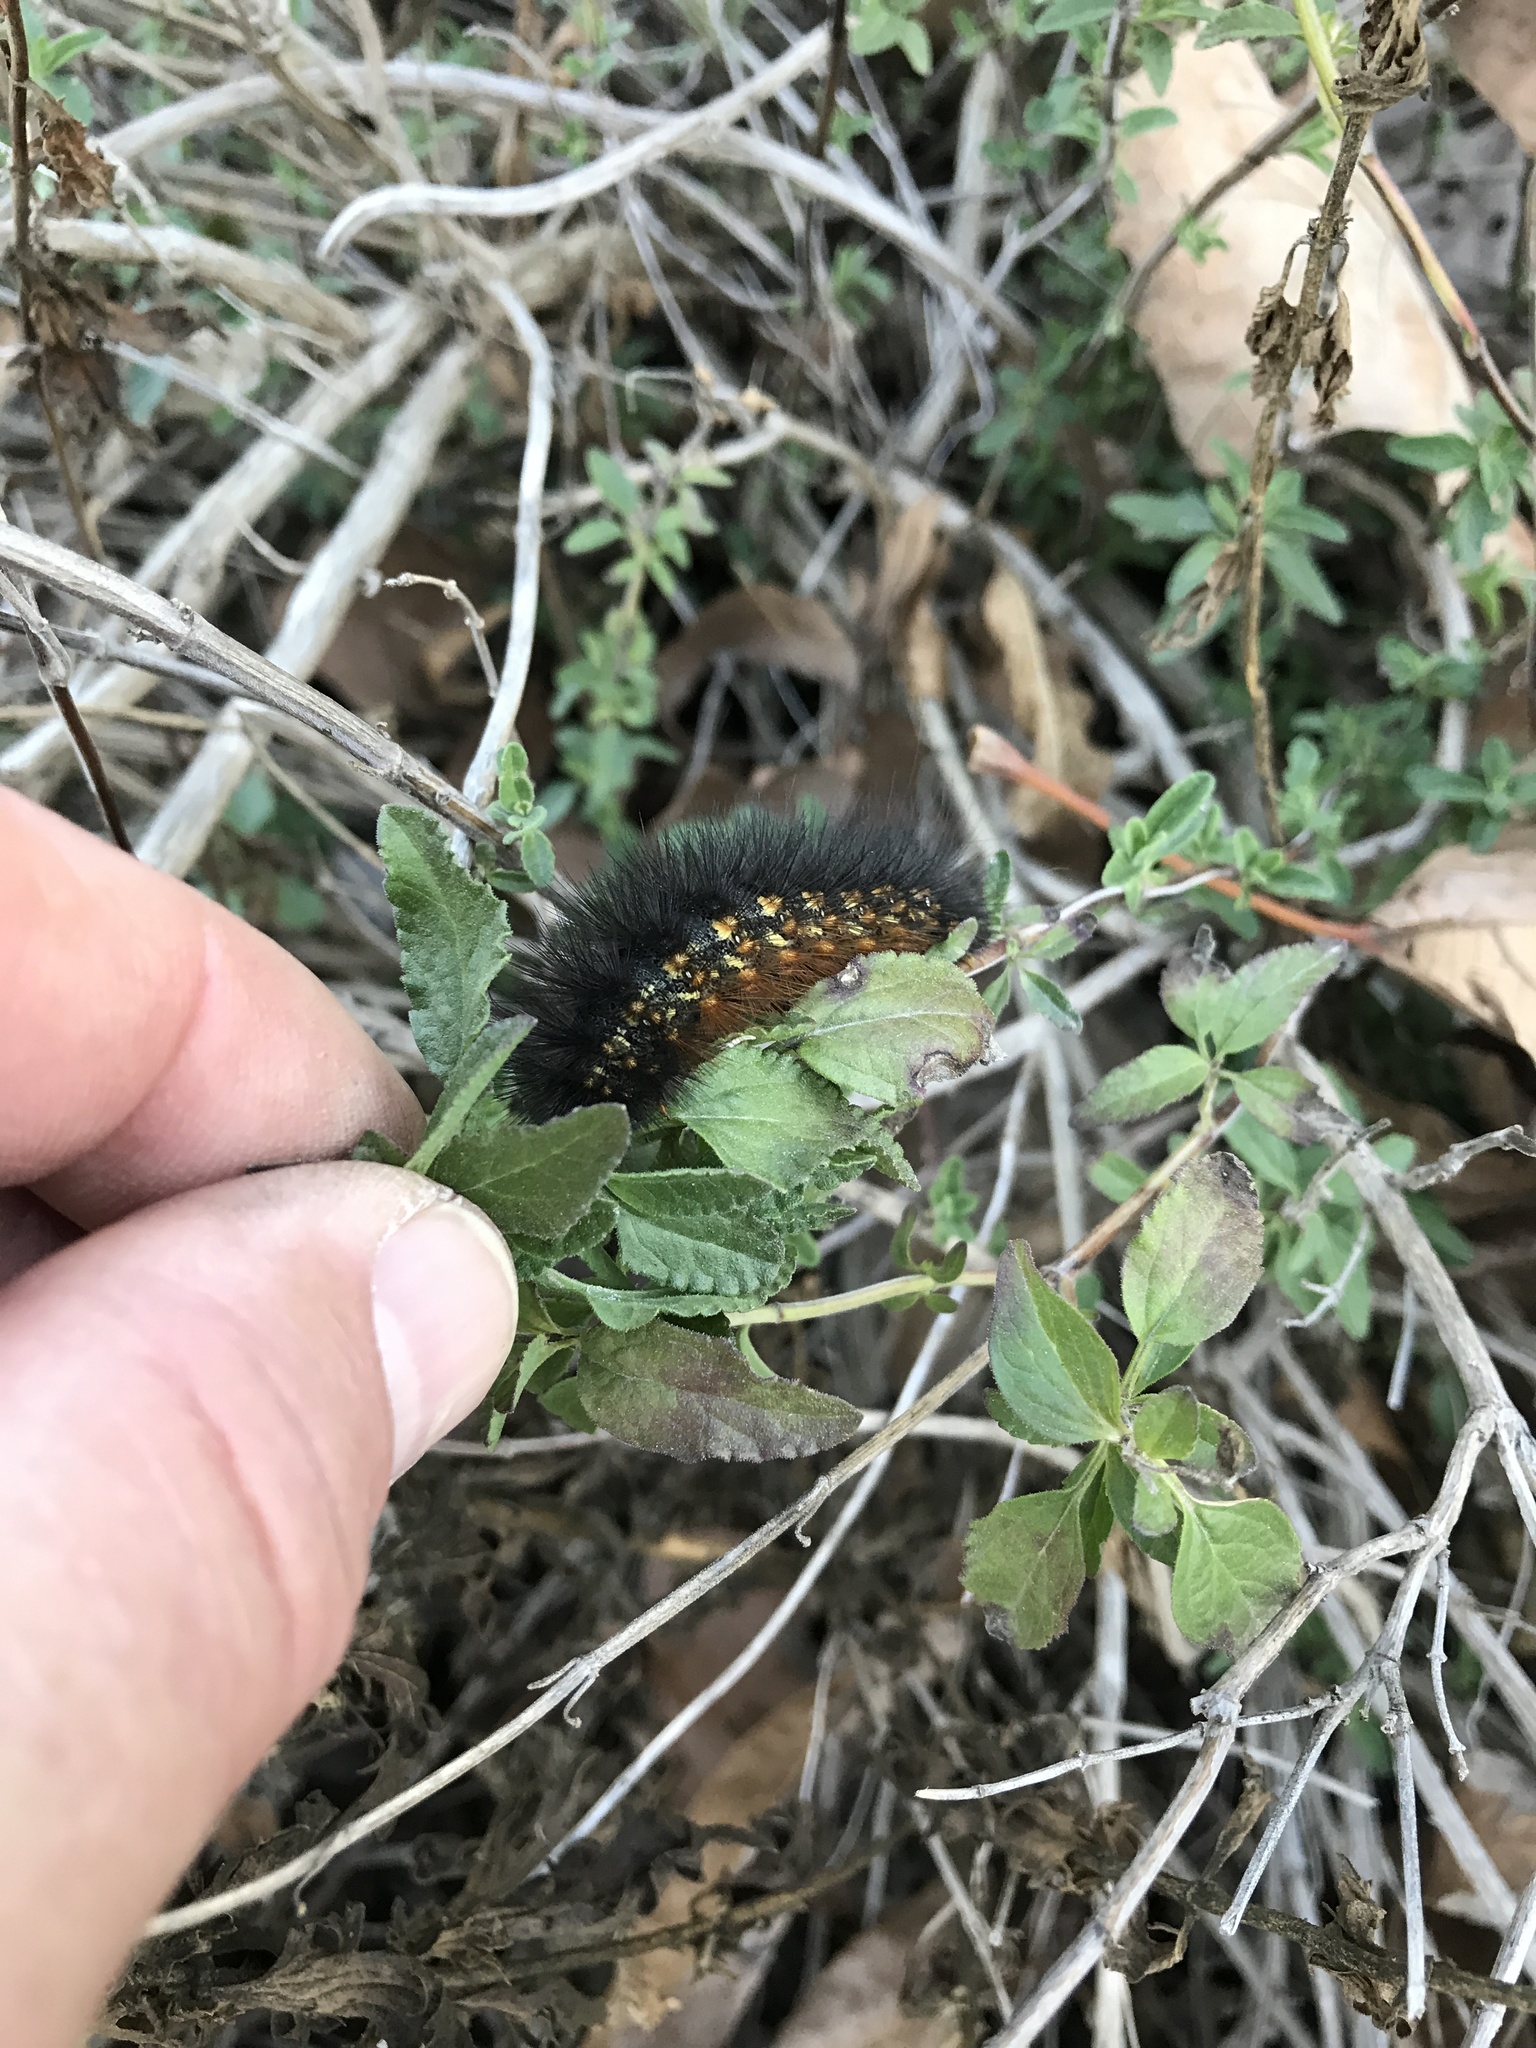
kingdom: Animalia
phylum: Arthropoda
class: Insecta
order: Lepidoptera
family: Erebidae
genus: Estigmene
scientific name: Estigmene acrea
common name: Salt marsh moth
